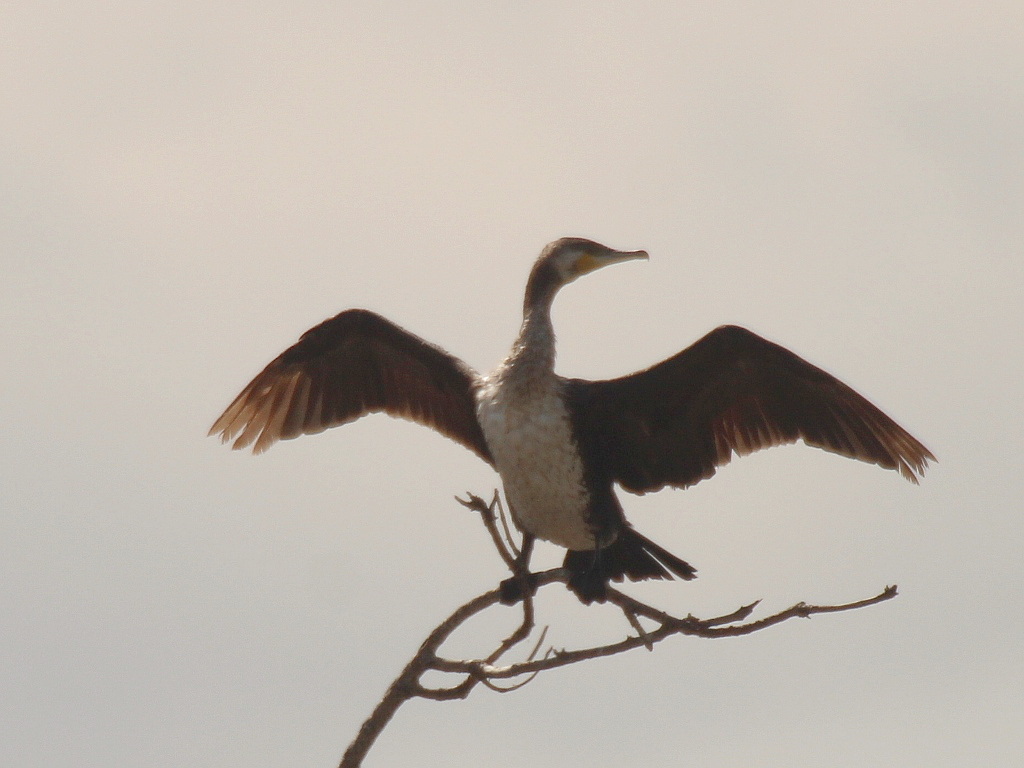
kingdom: Animalia
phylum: Chordata
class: Aves
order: Suliformes
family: Phalacrocoracidae
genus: Phalacrocorax
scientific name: Phalacrocorax carbo
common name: Great cormorant
